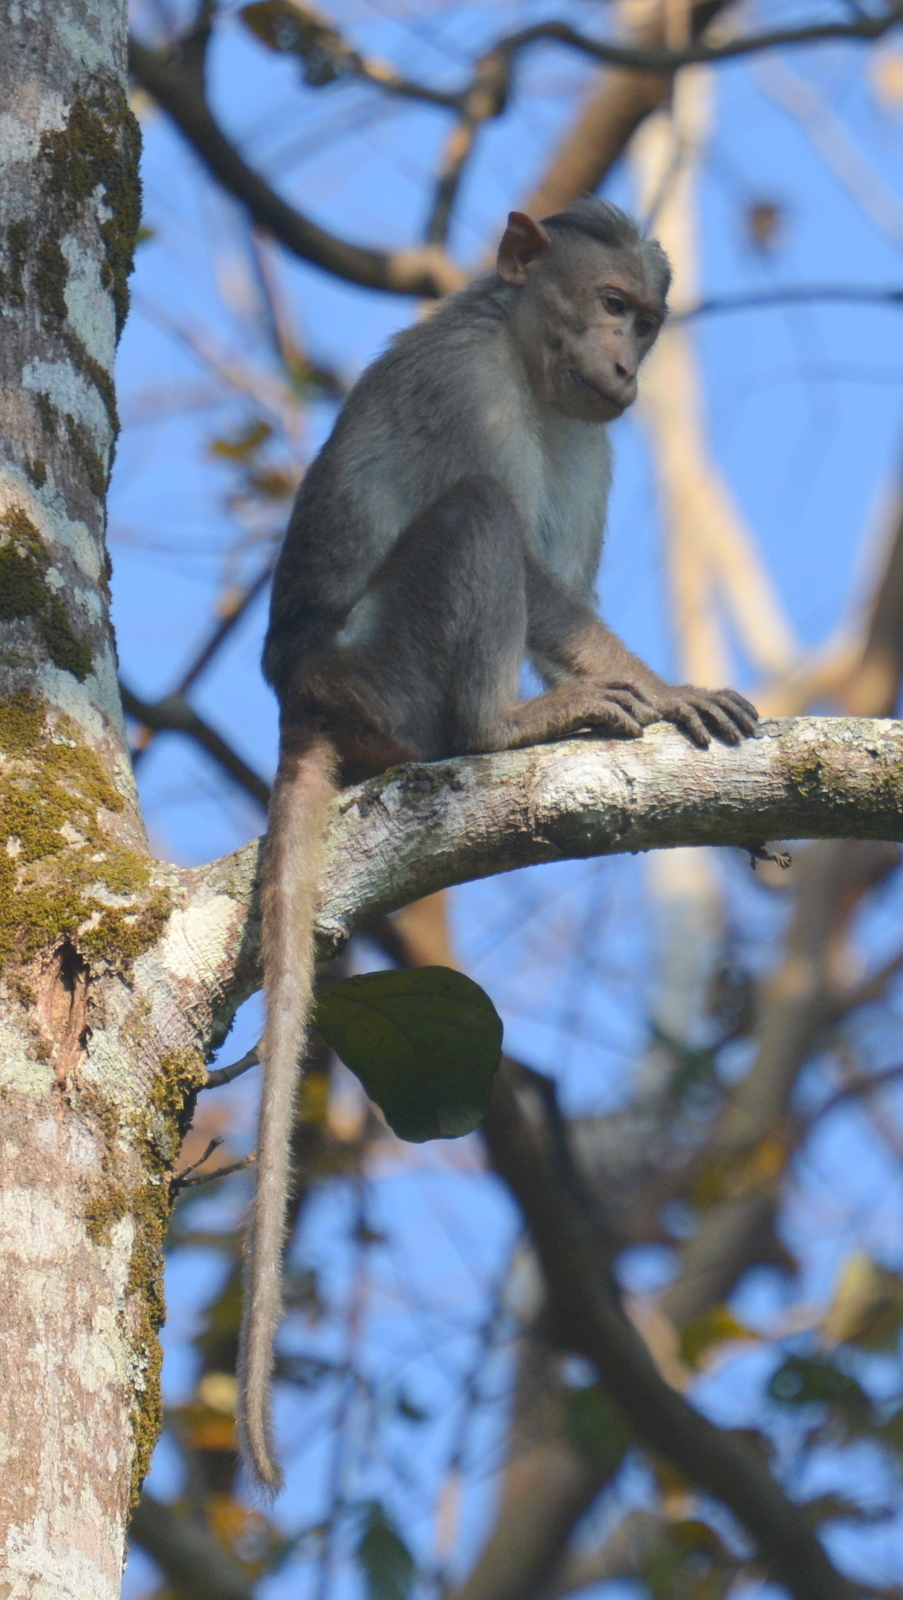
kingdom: Animalia
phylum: Chordata
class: Mammalia
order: Primates
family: Cercopithecidae
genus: Macaca
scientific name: Macaca radiata
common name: Bonnet macaque
